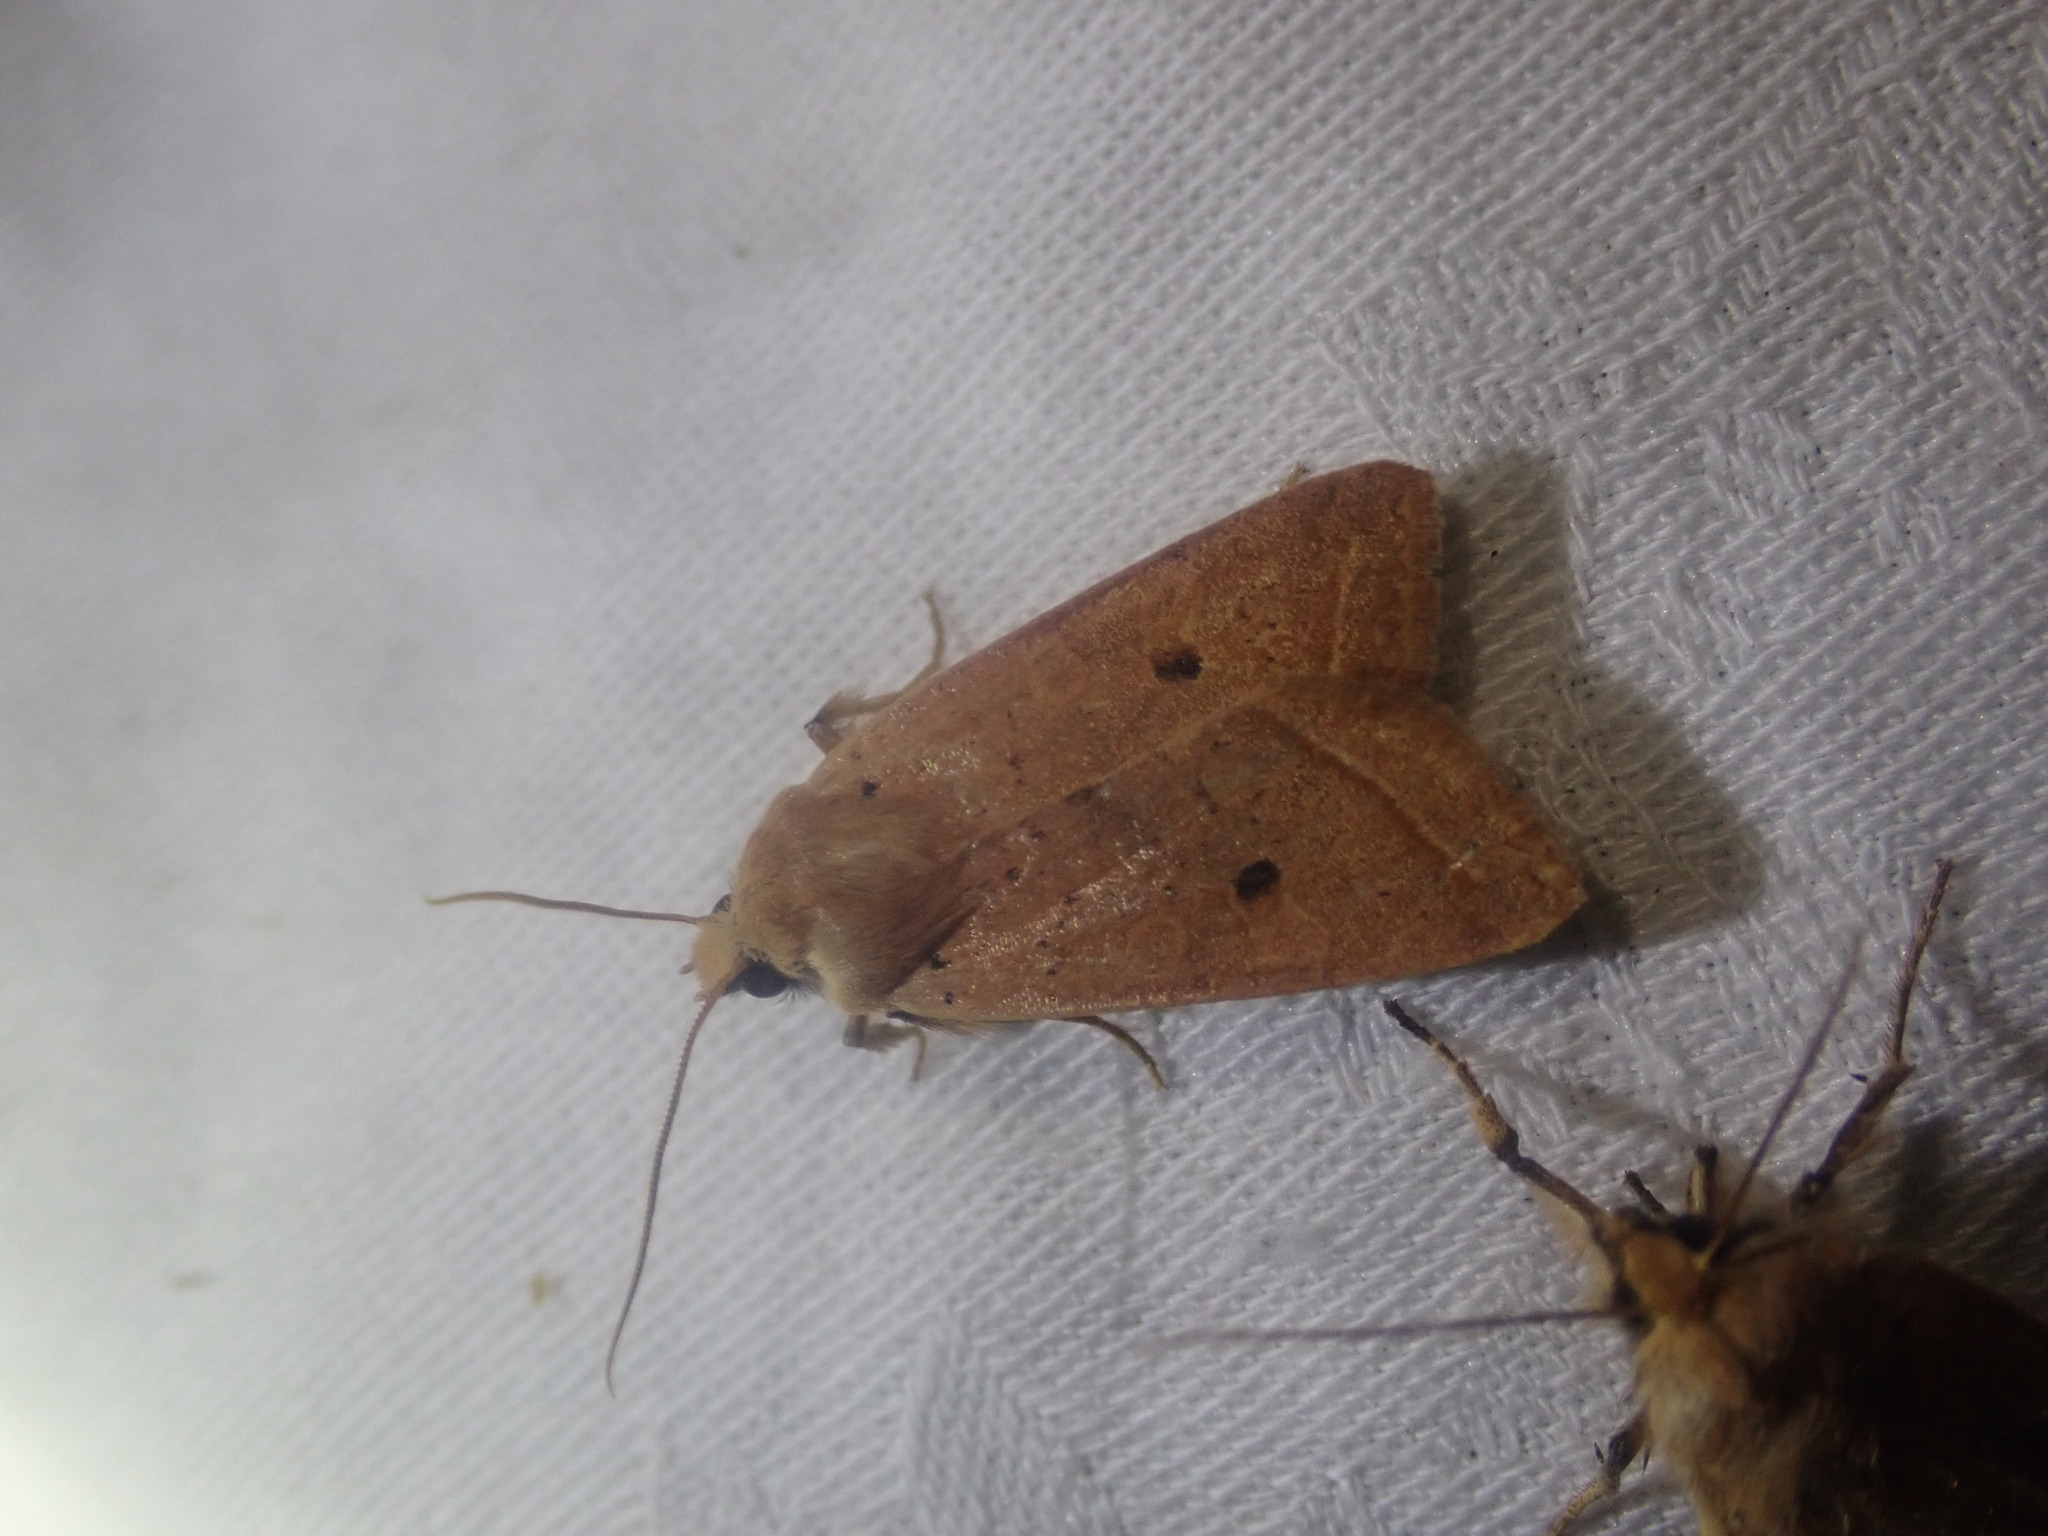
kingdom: Animalia
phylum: Arthropoda
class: Insecta
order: Lepidoptera
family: Noctuidae
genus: Agrochola
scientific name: Agrochola macilenta
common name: Yellow-line quaker
